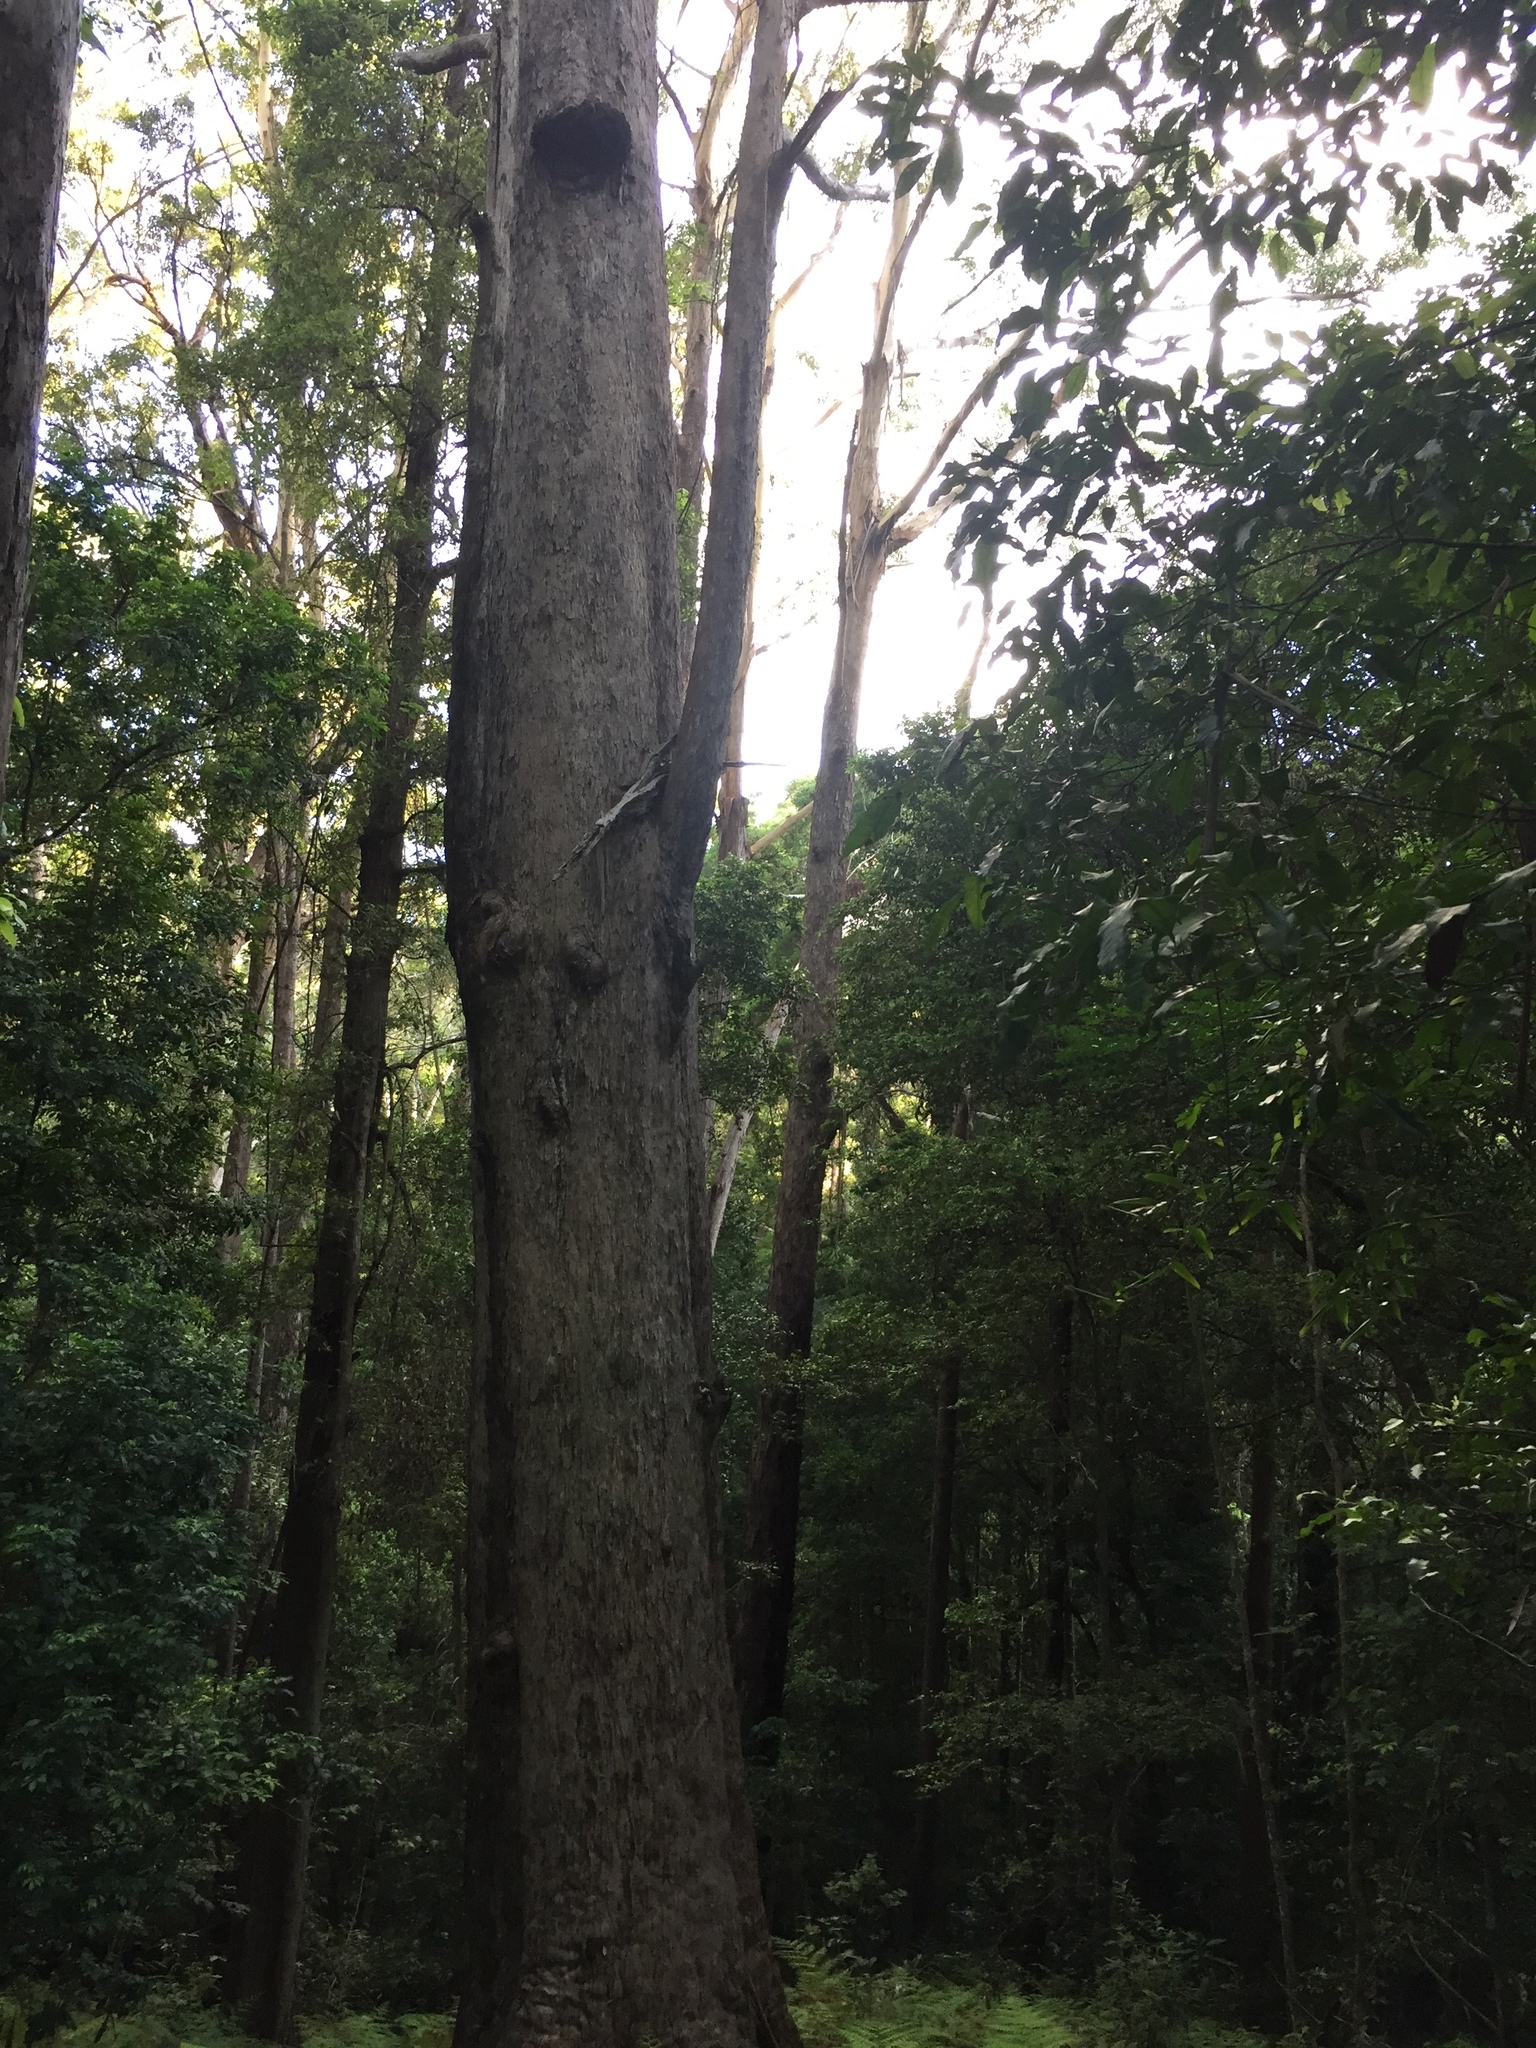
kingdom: Plantae
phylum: Tracheophyta
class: Magnoliopsida
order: Myrtales
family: Myrtaceae
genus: Eucalyptus
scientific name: Eucalyptus pilularis
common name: Blackbutt
